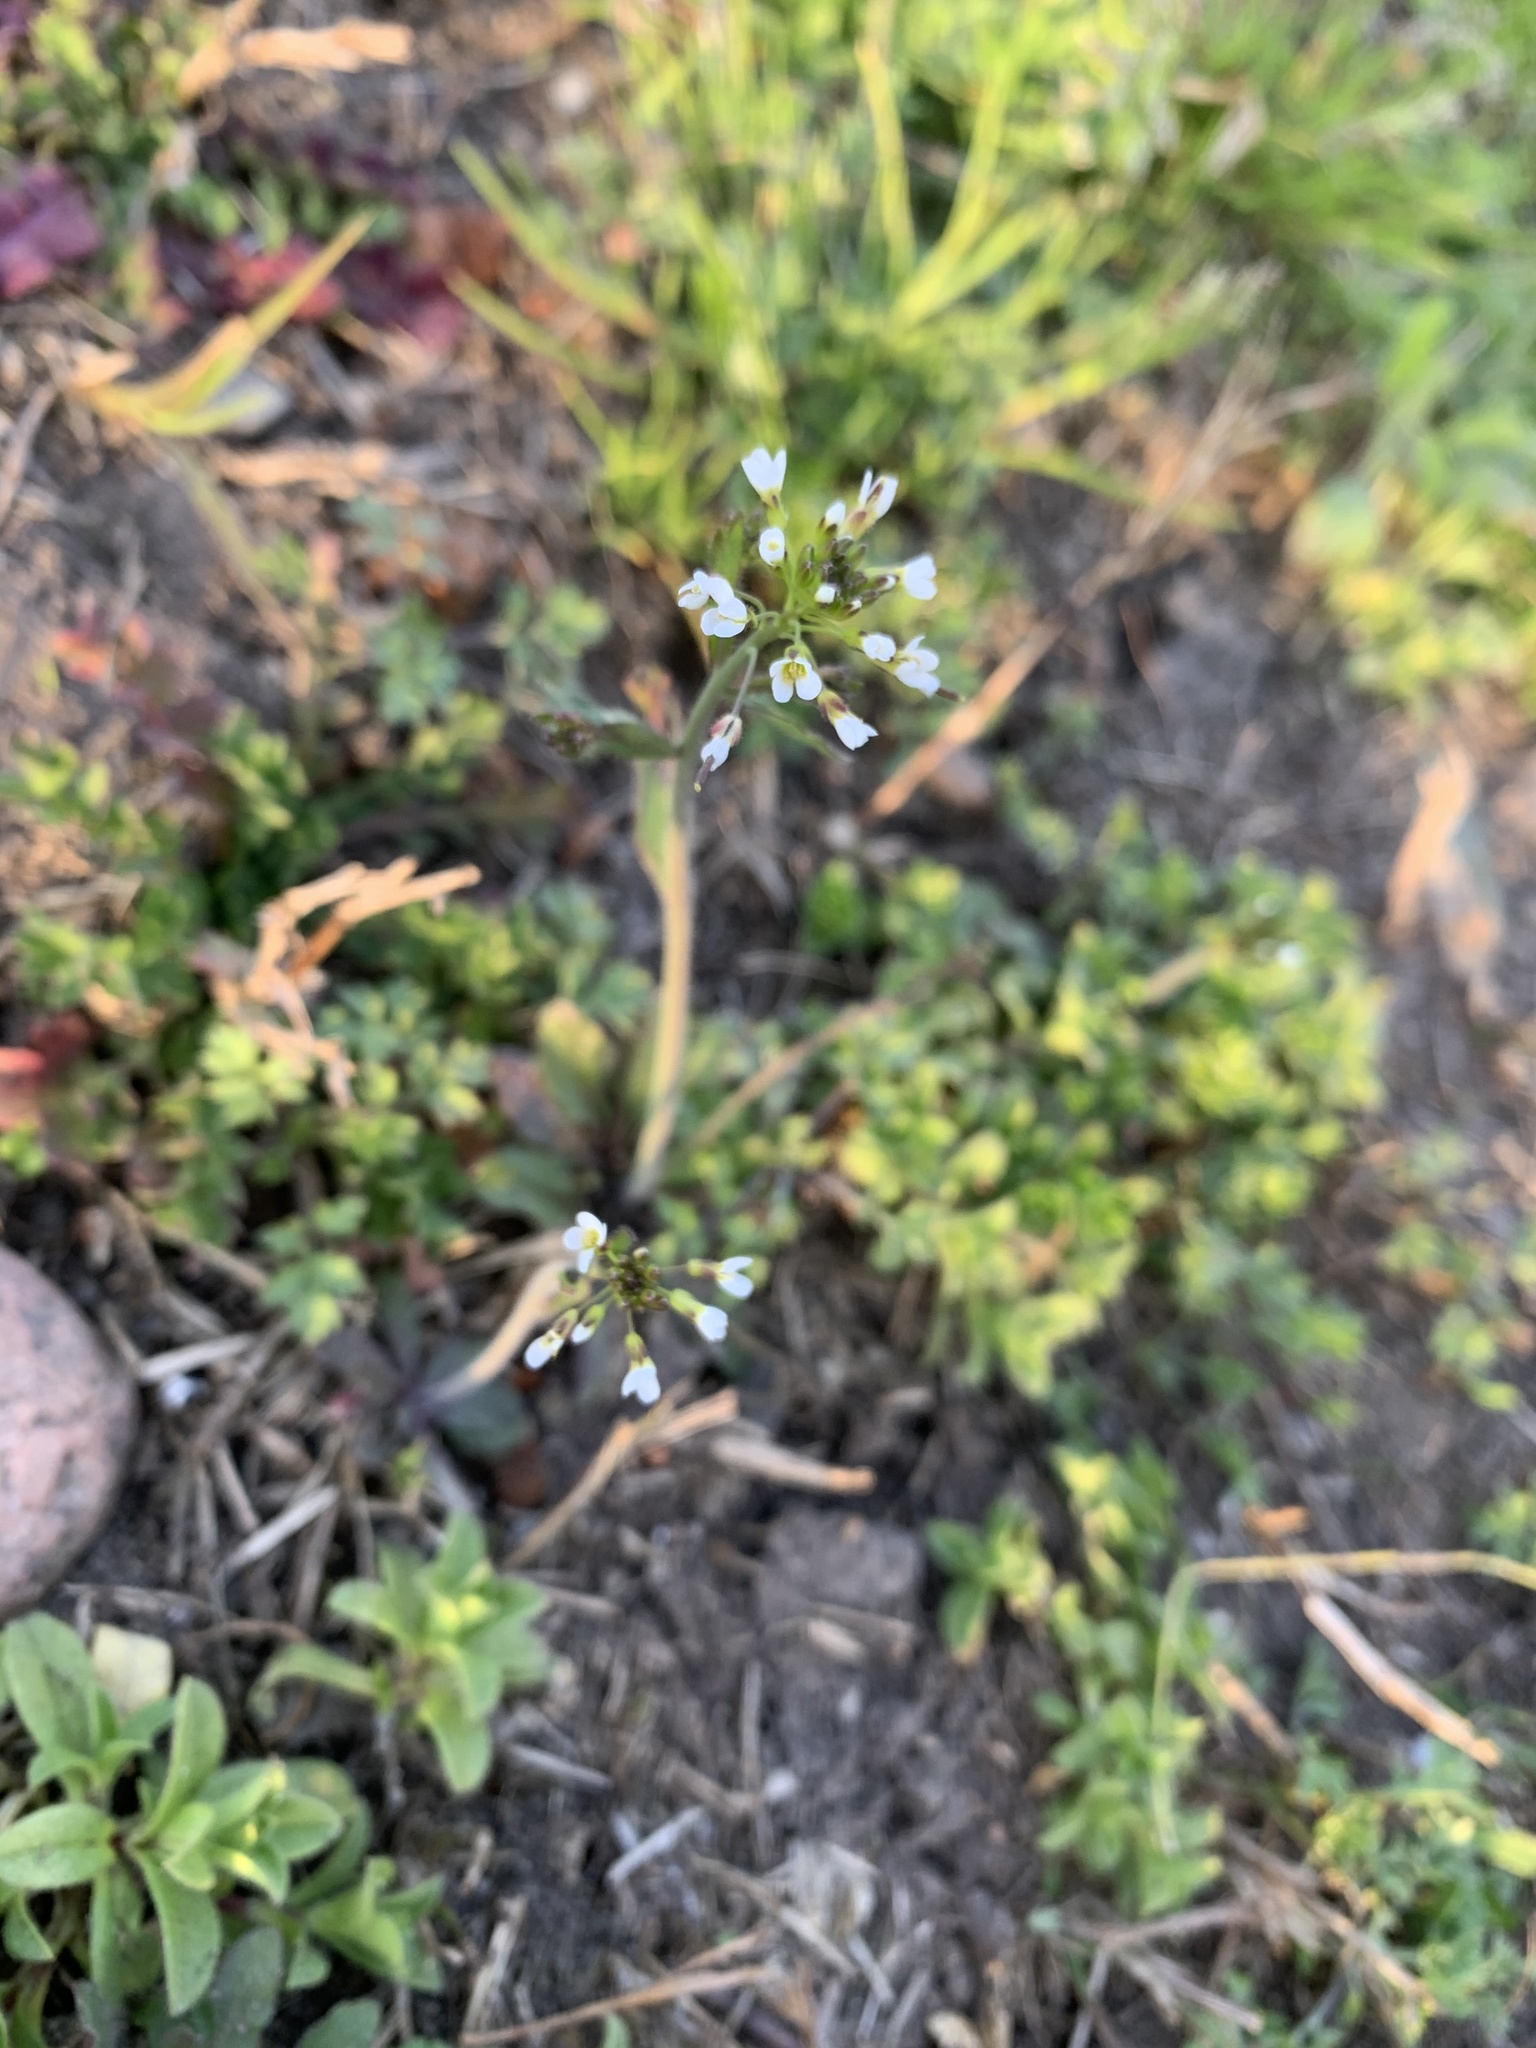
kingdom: Plantae
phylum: Tracheophyta
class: Magnoliopsida
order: Brassicales
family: Brassicaceae
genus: Capsella
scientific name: Capsella bursa-pastoris
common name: Shepherd's purse
